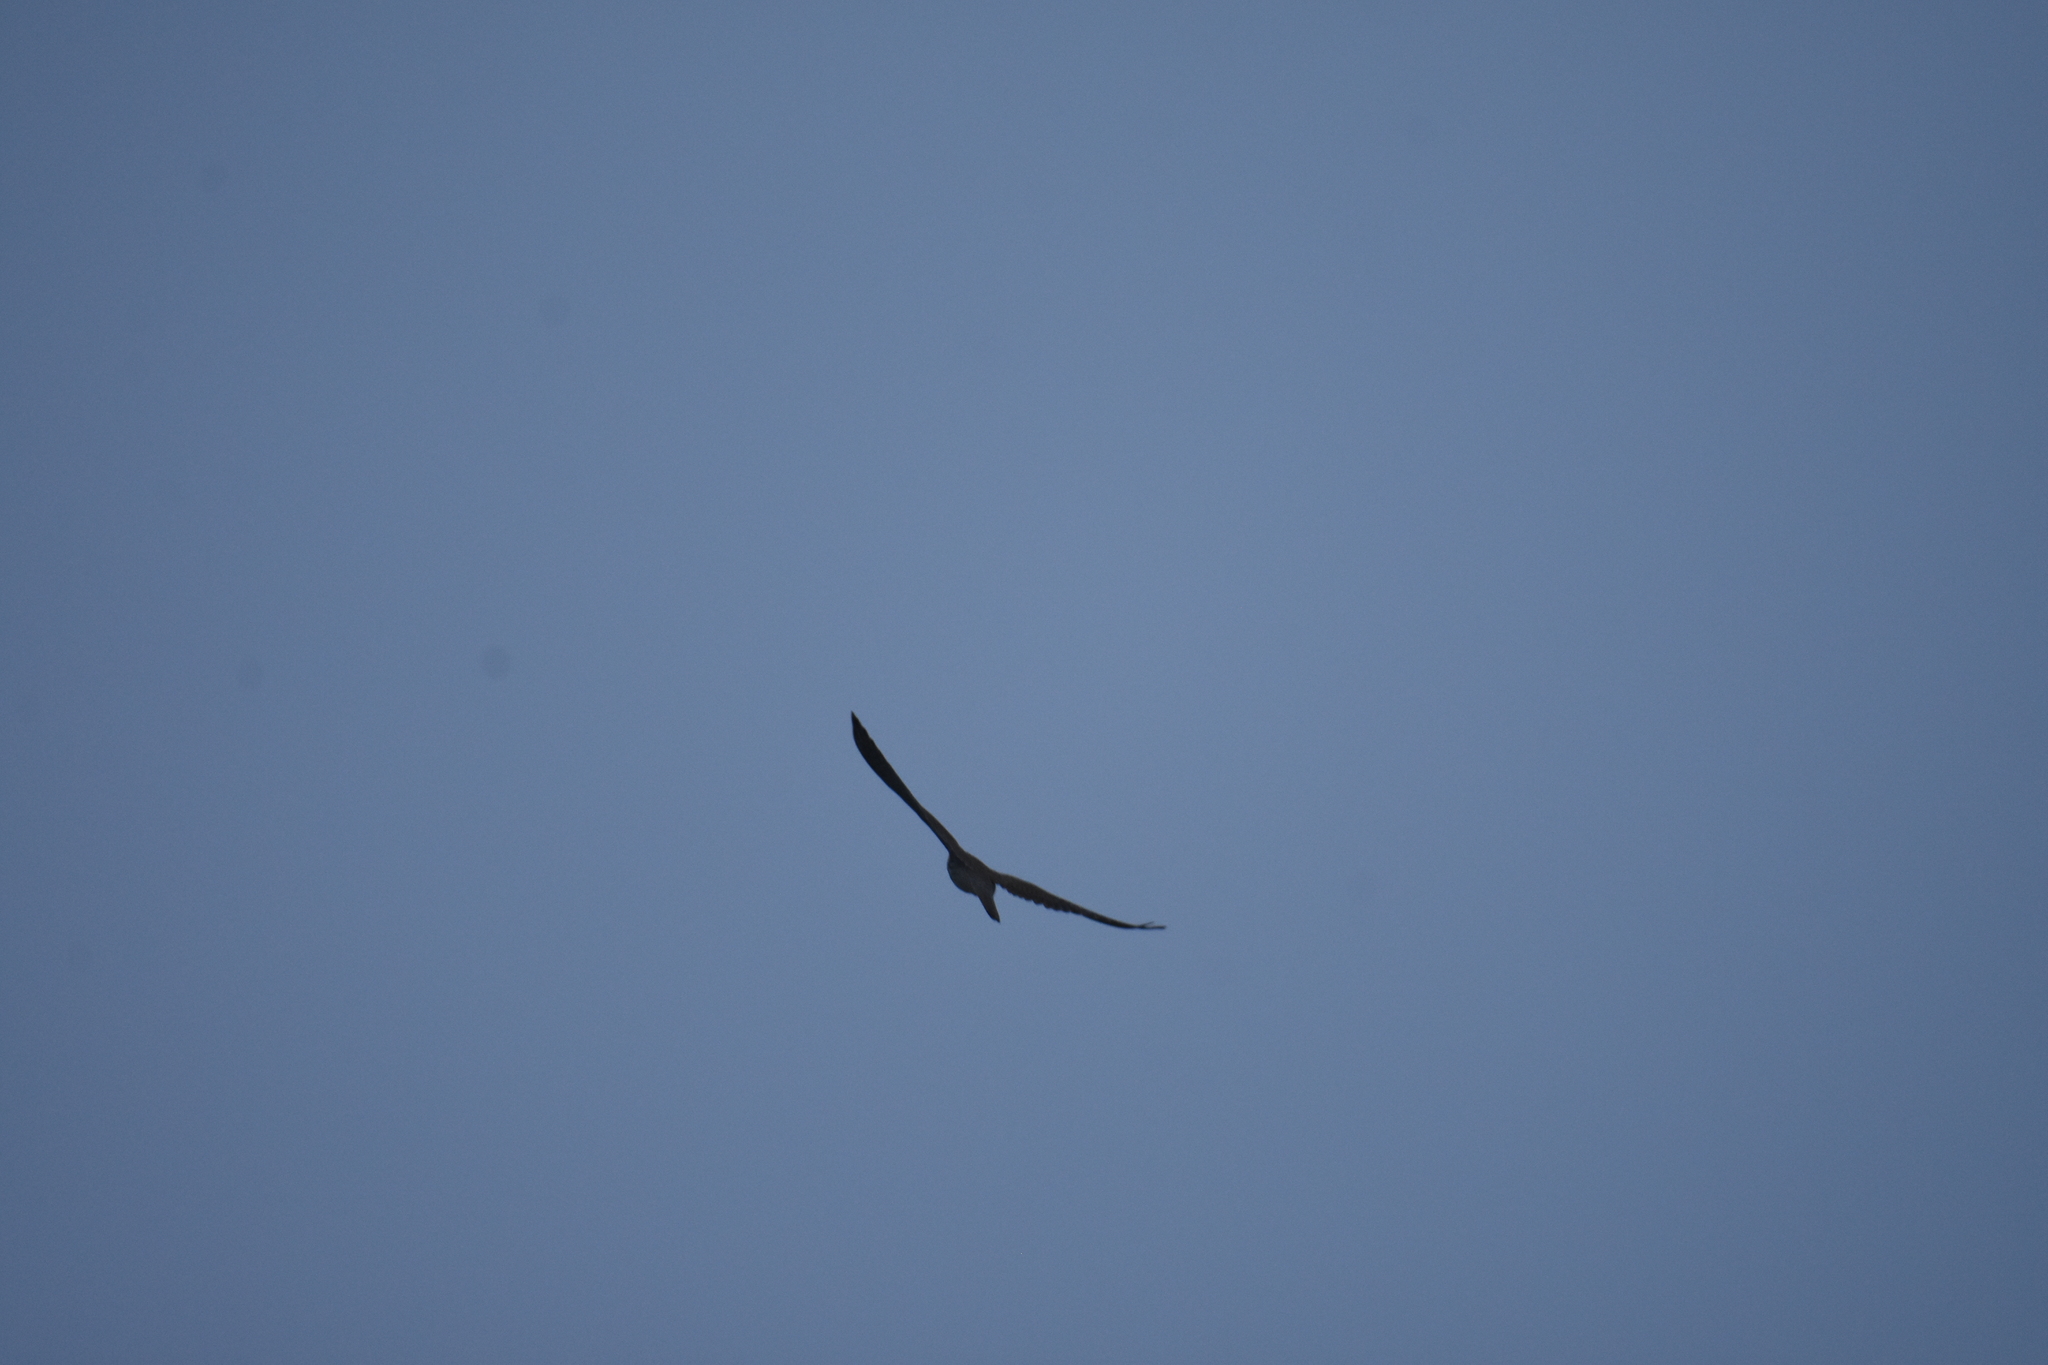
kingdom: Animalia
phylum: Chordata
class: Aves
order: Falconiformes
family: Falconidae
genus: Falco
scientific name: Falco tinnunculus
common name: Common kestrel
